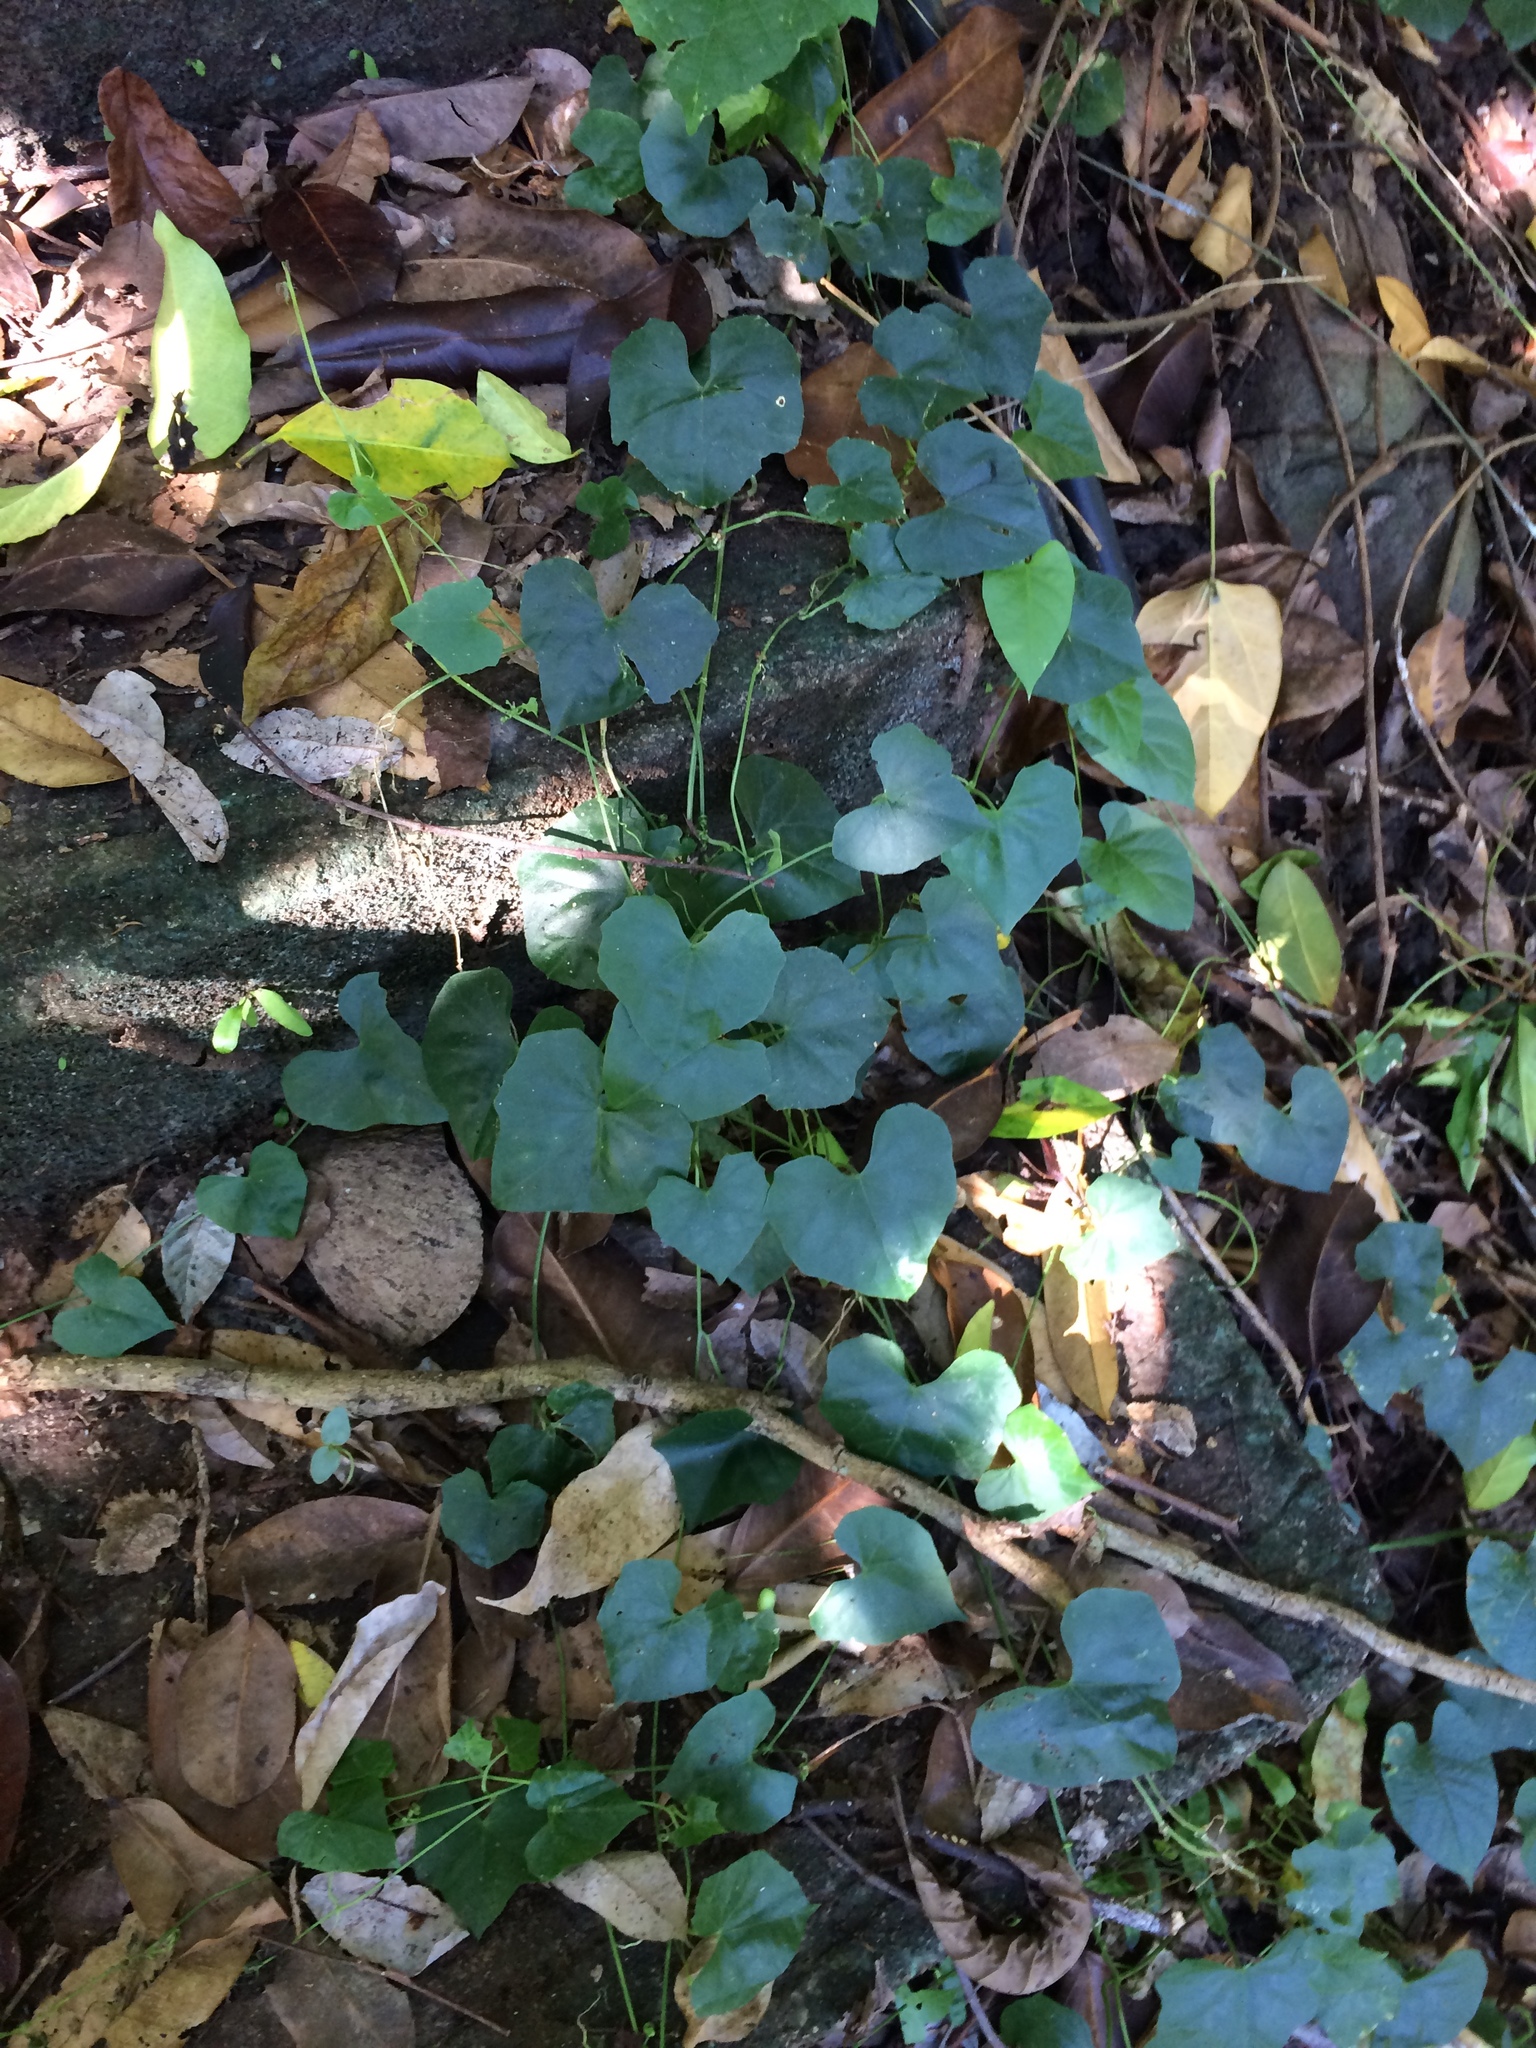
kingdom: Plantae
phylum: Tracheophyta
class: Magnoliopsida
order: Cucurbitales
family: Cucurbitaceae
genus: Melothria
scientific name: Melothria pendula
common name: Creeping-cucumber
